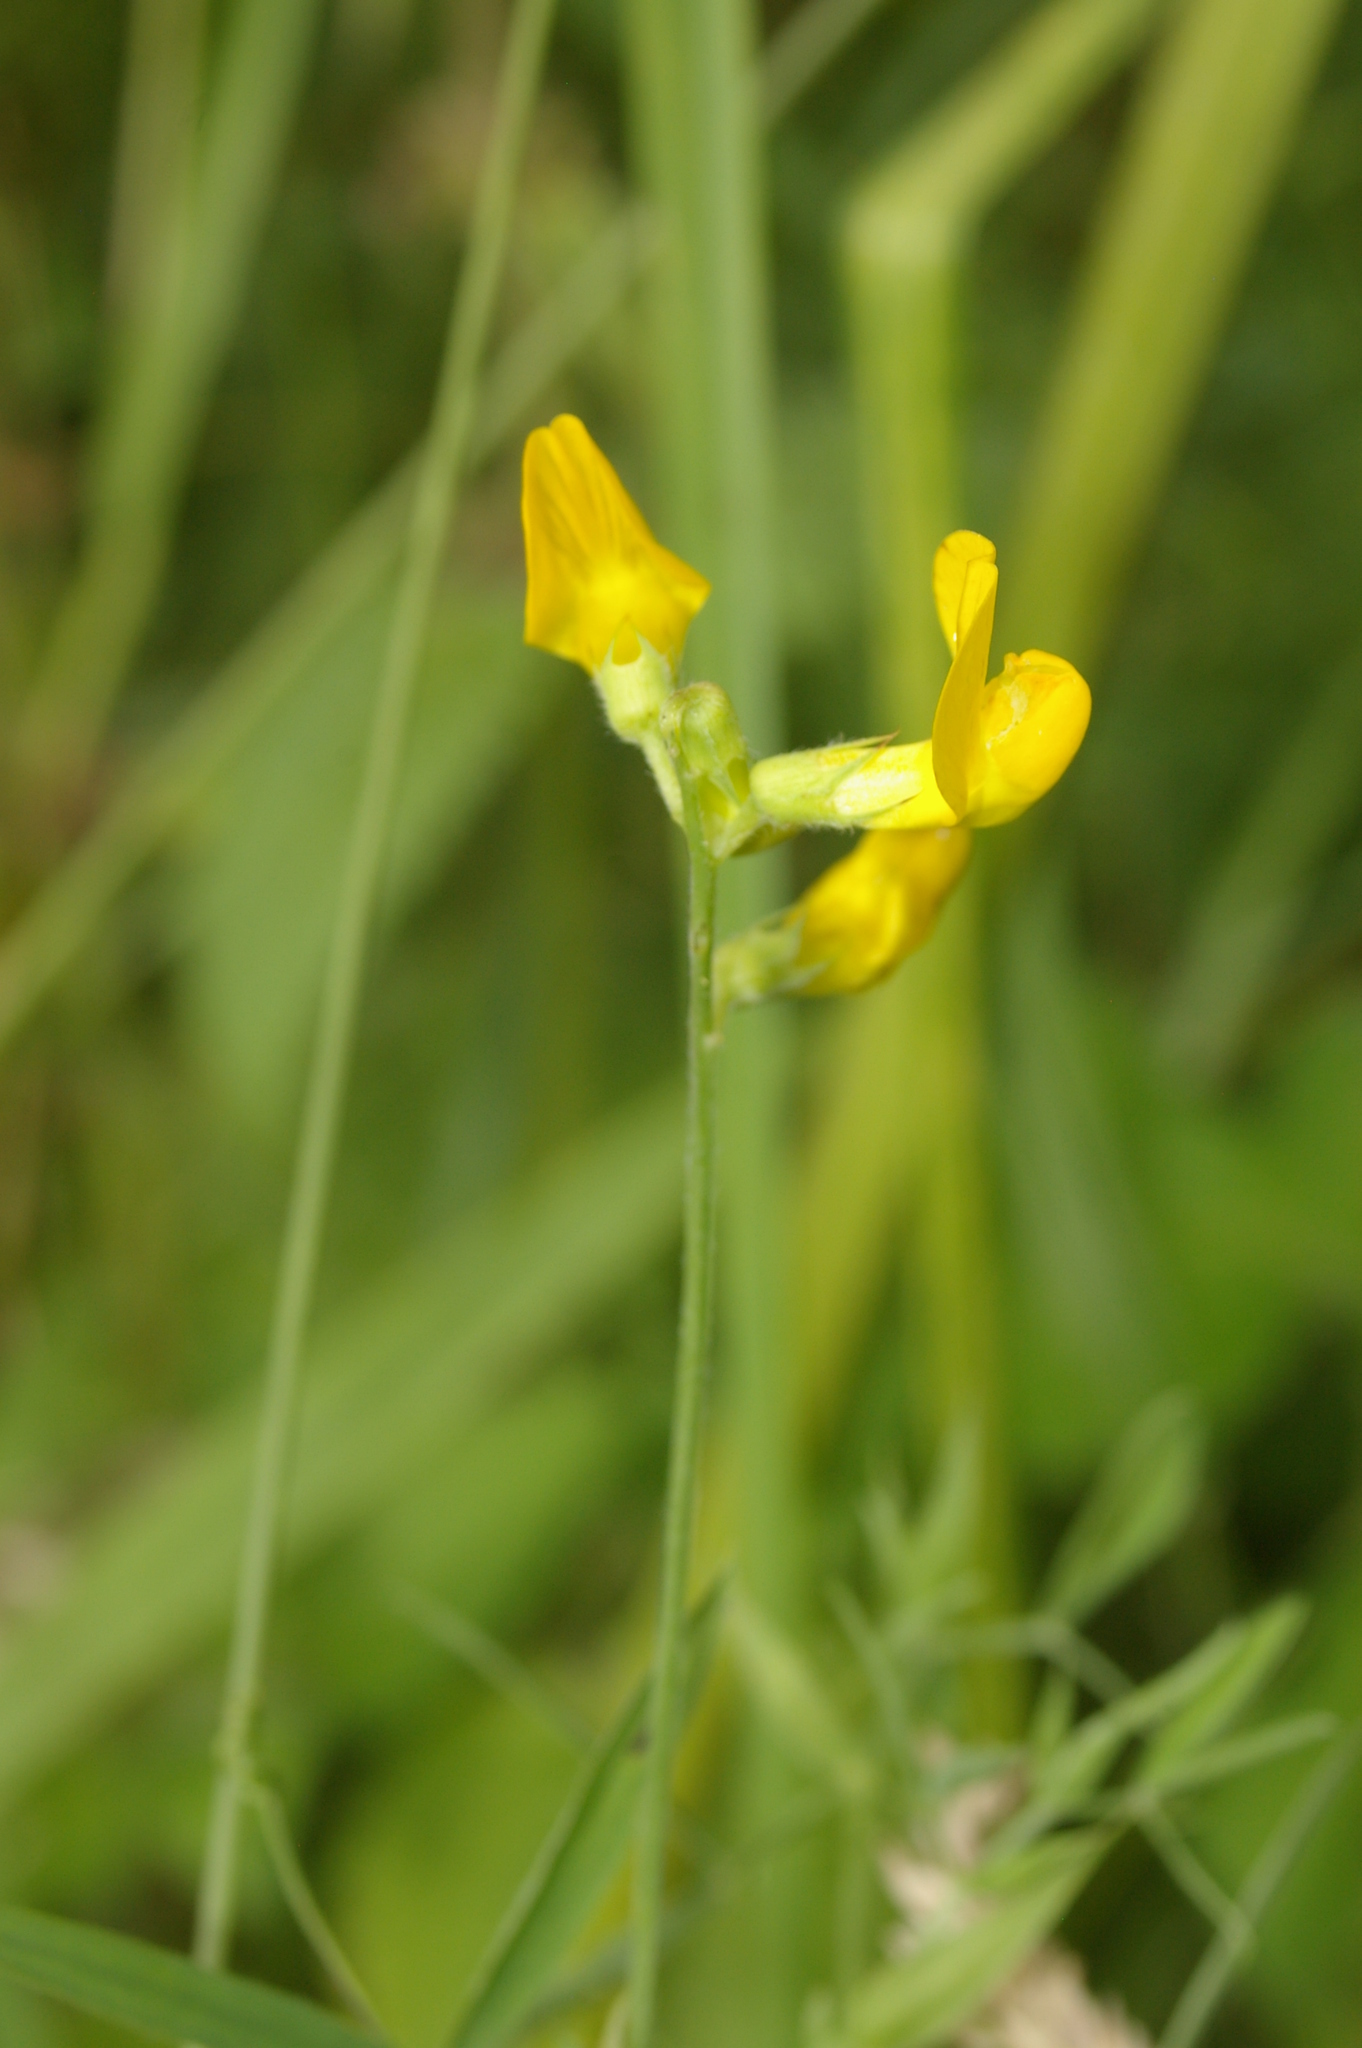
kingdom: Plantae
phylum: Tracheophyta
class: Magnoliopsida
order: Fabales
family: Fabaceae
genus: Lathyrus
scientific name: Lathyrus pratensis
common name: Meadow vetchling
